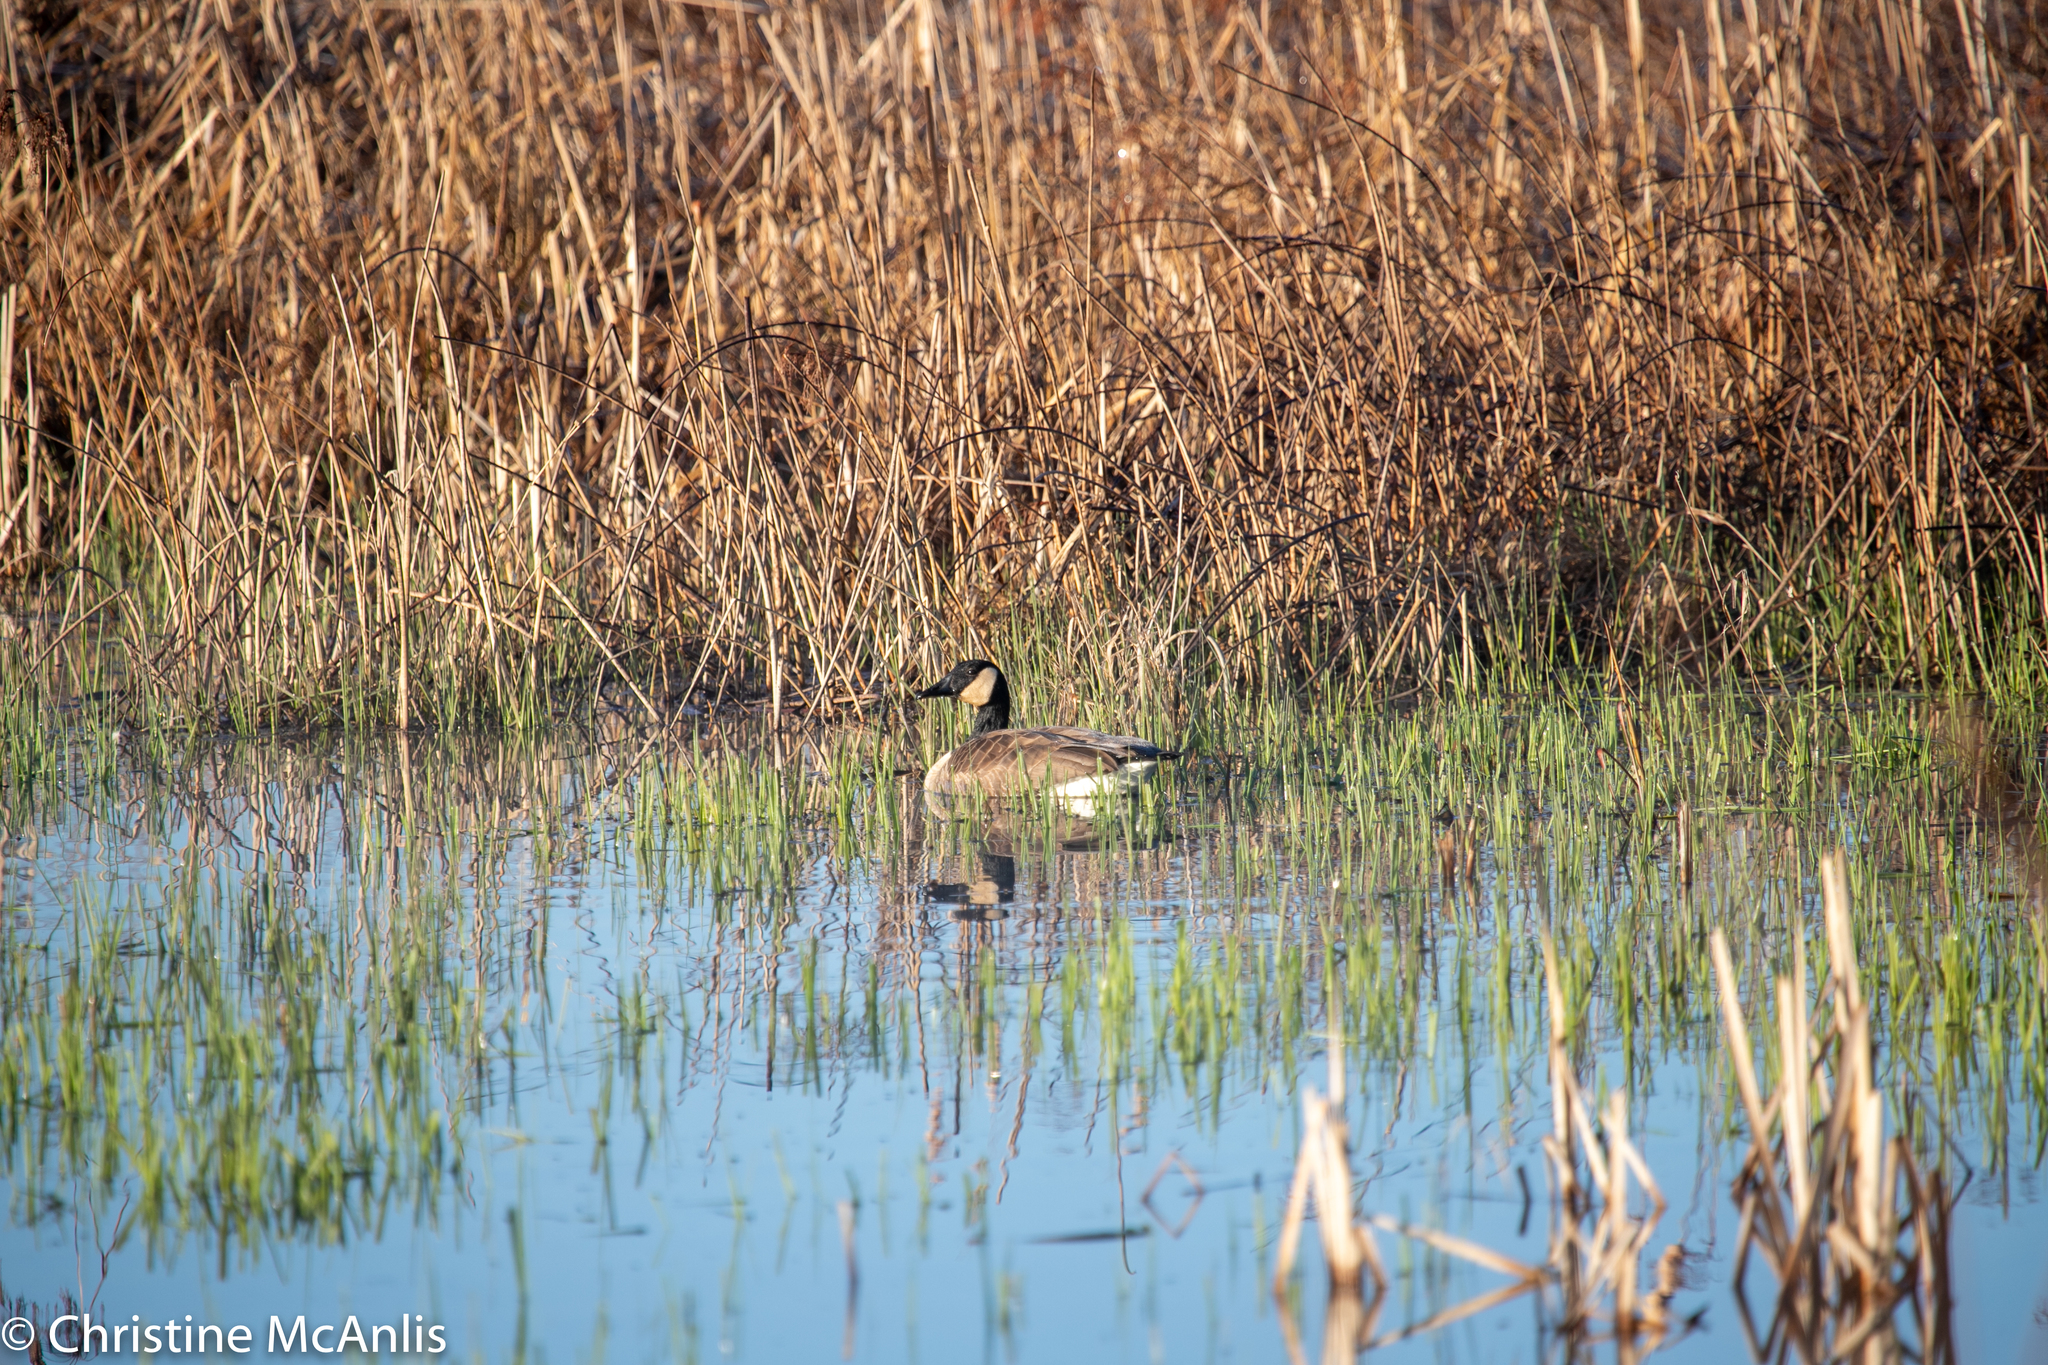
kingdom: Animalia
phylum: Chordata
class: Aves
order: Anseriformes
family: Anatidae
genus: Branta
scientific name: Branta canadensis
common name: Canada goose
